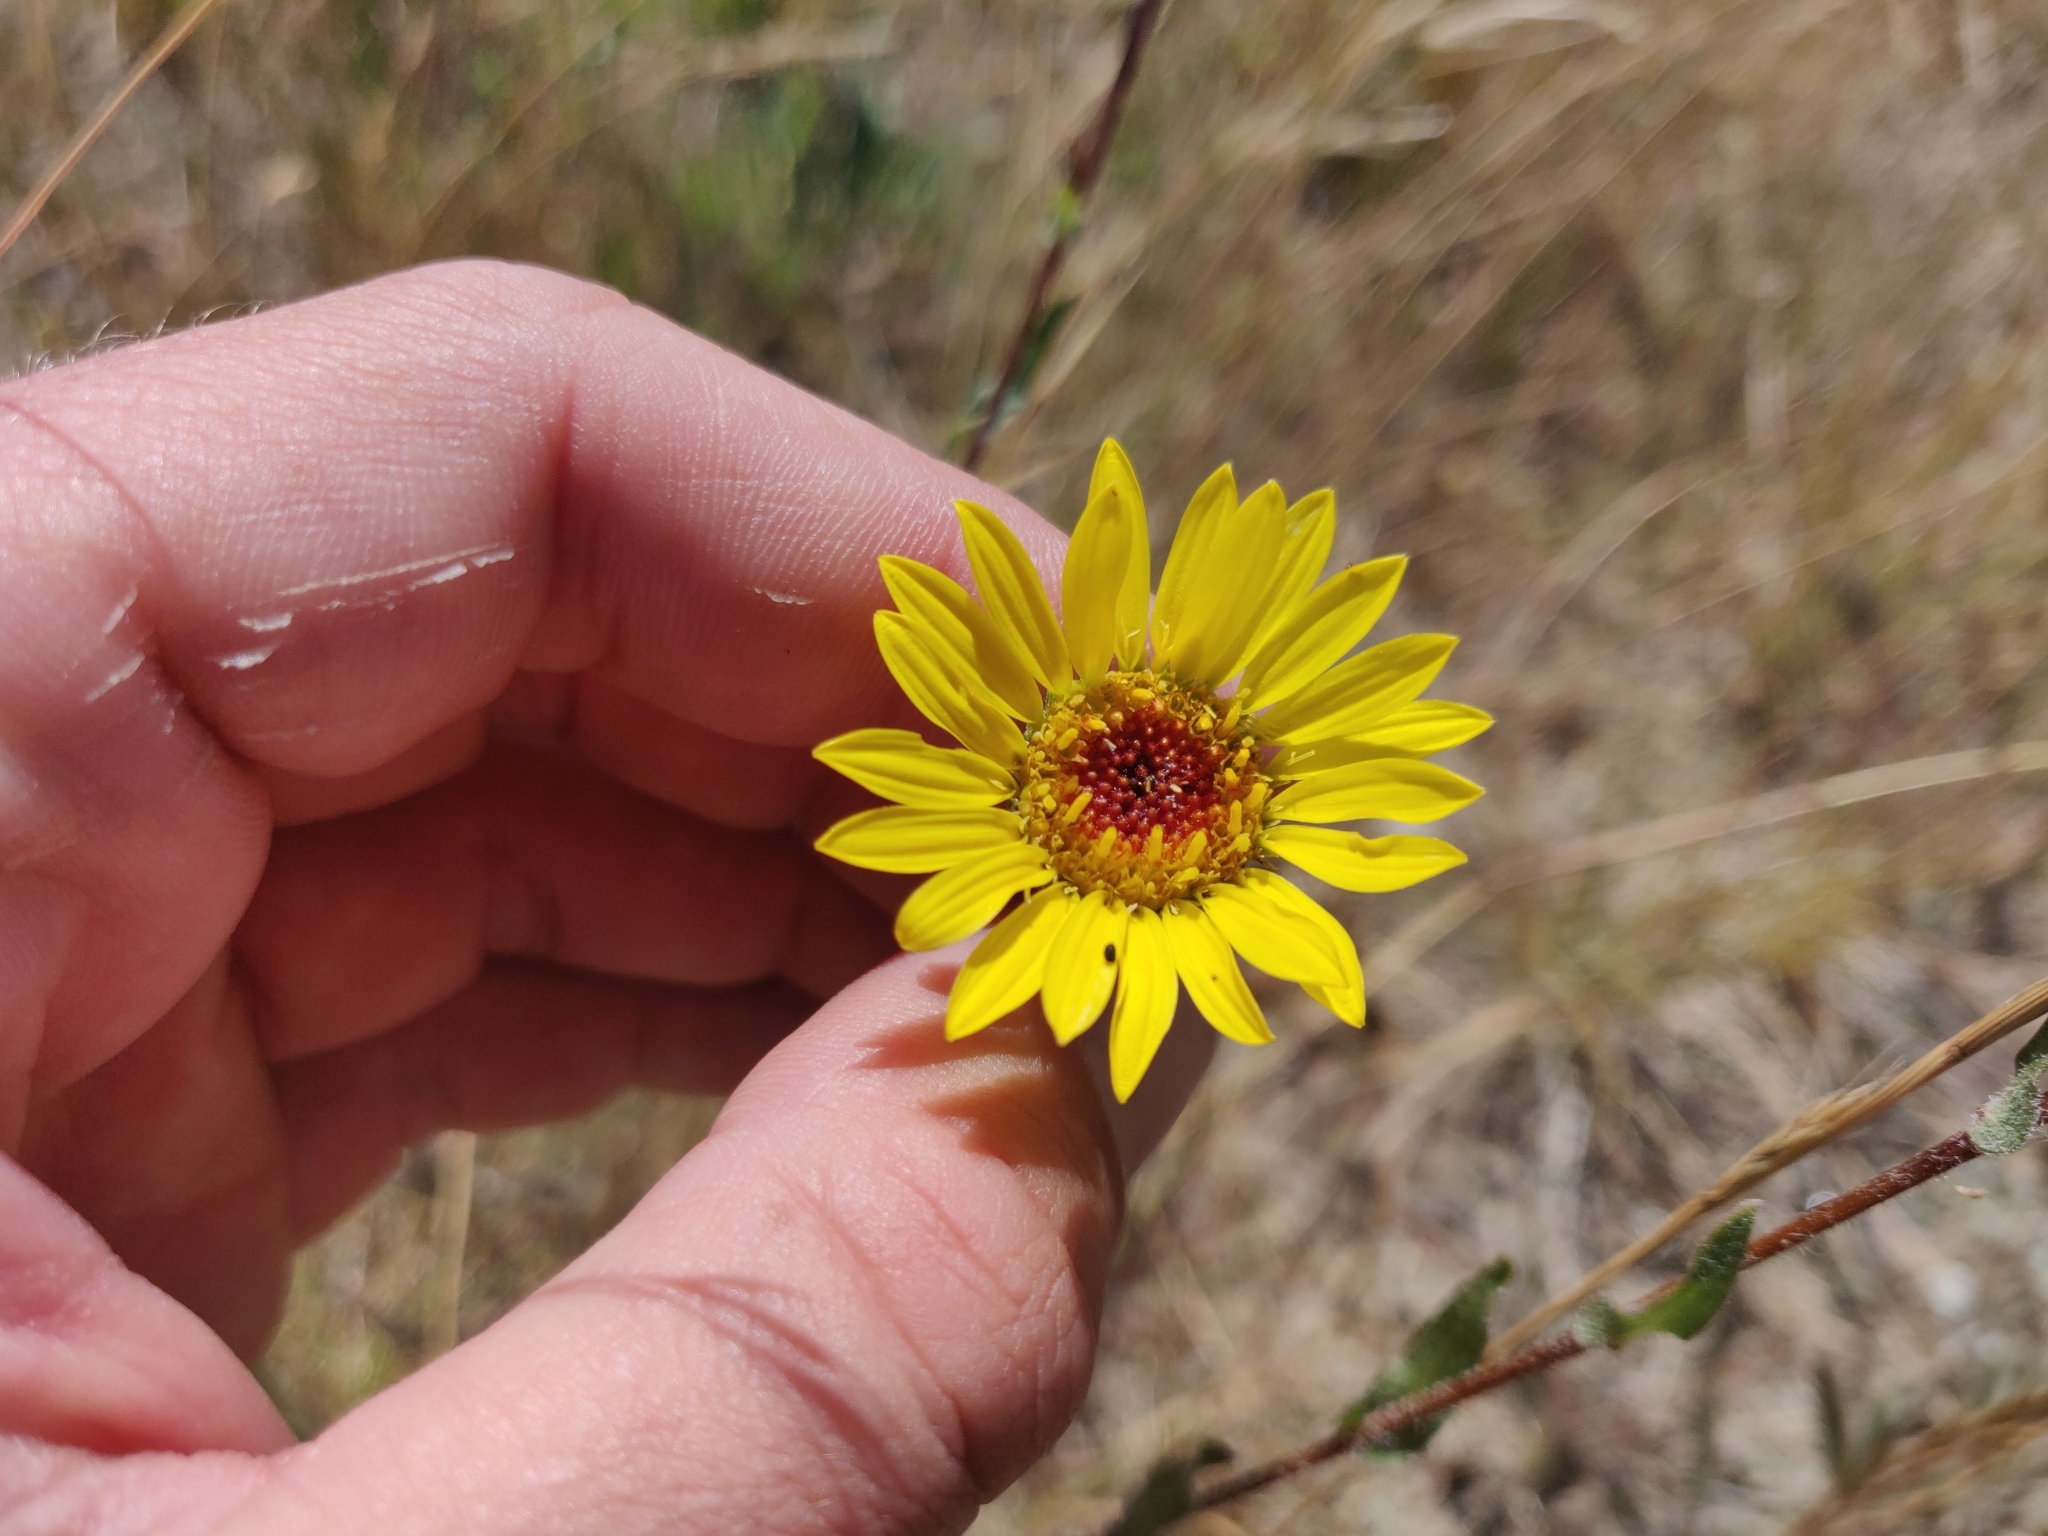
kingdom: Plantae
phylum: Tracheophyta
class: Magnoliopsida
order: Asterales
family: Asteraceae
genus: Grindelia
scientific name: Grindelia hirsutula
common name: Hairy gumweed
